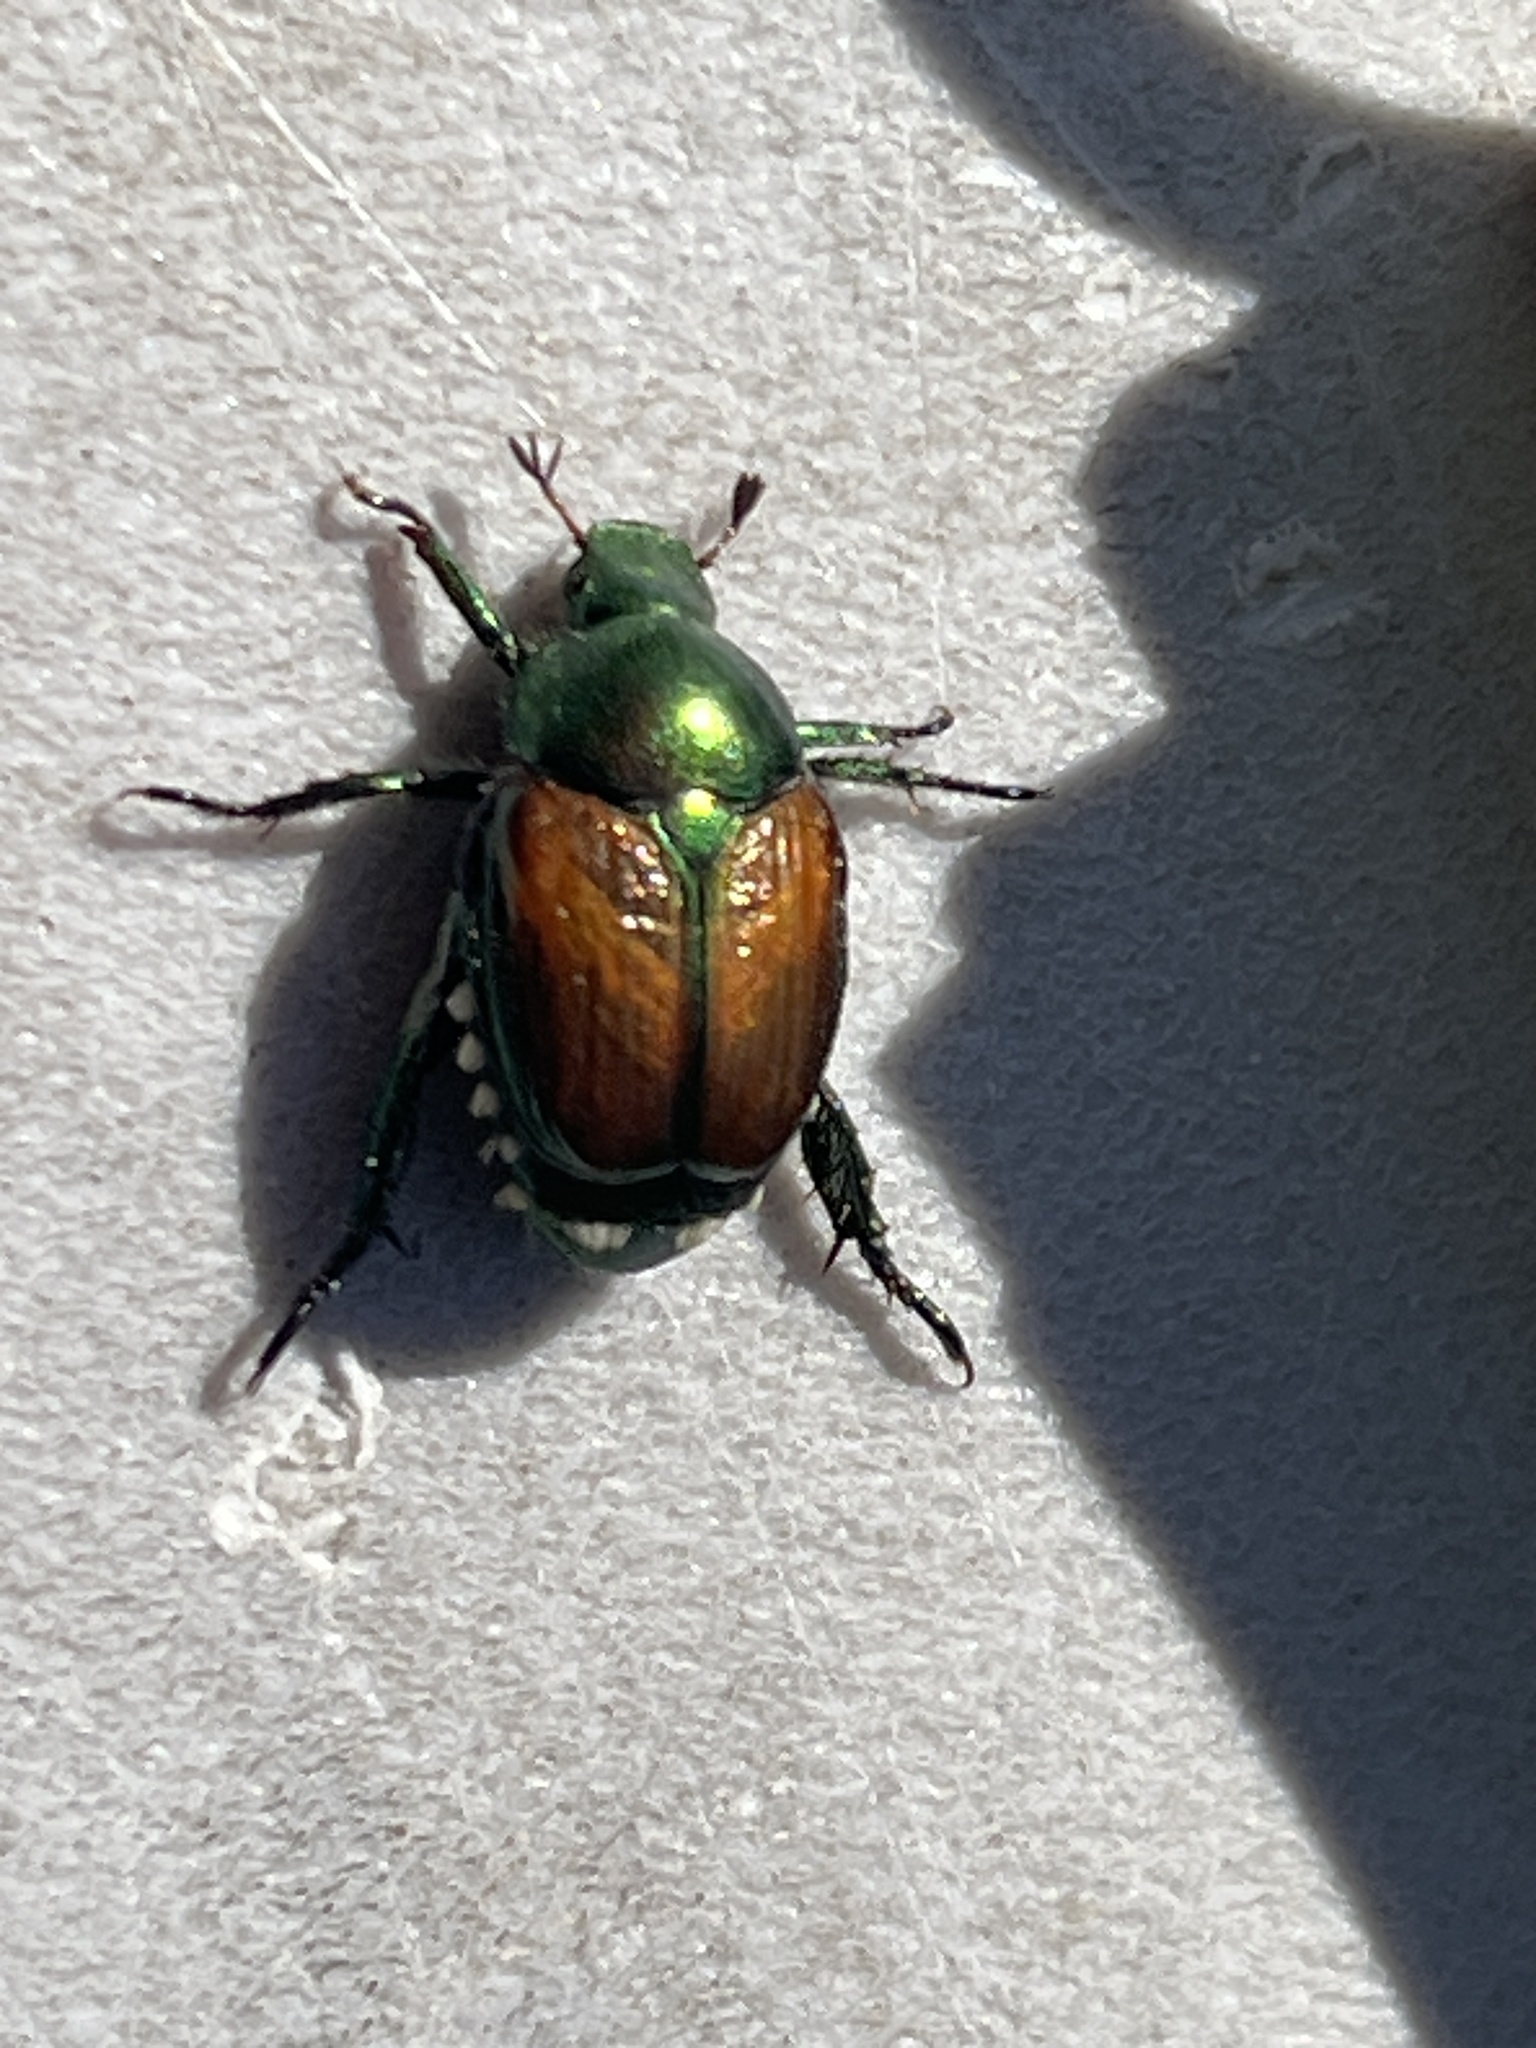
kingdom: Animalia
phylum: Arthropoda
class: Insecta
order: Coleoptera
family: Scarabaeidae
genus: Popillia
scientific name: Popillia japonica
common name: Japanese beetle
